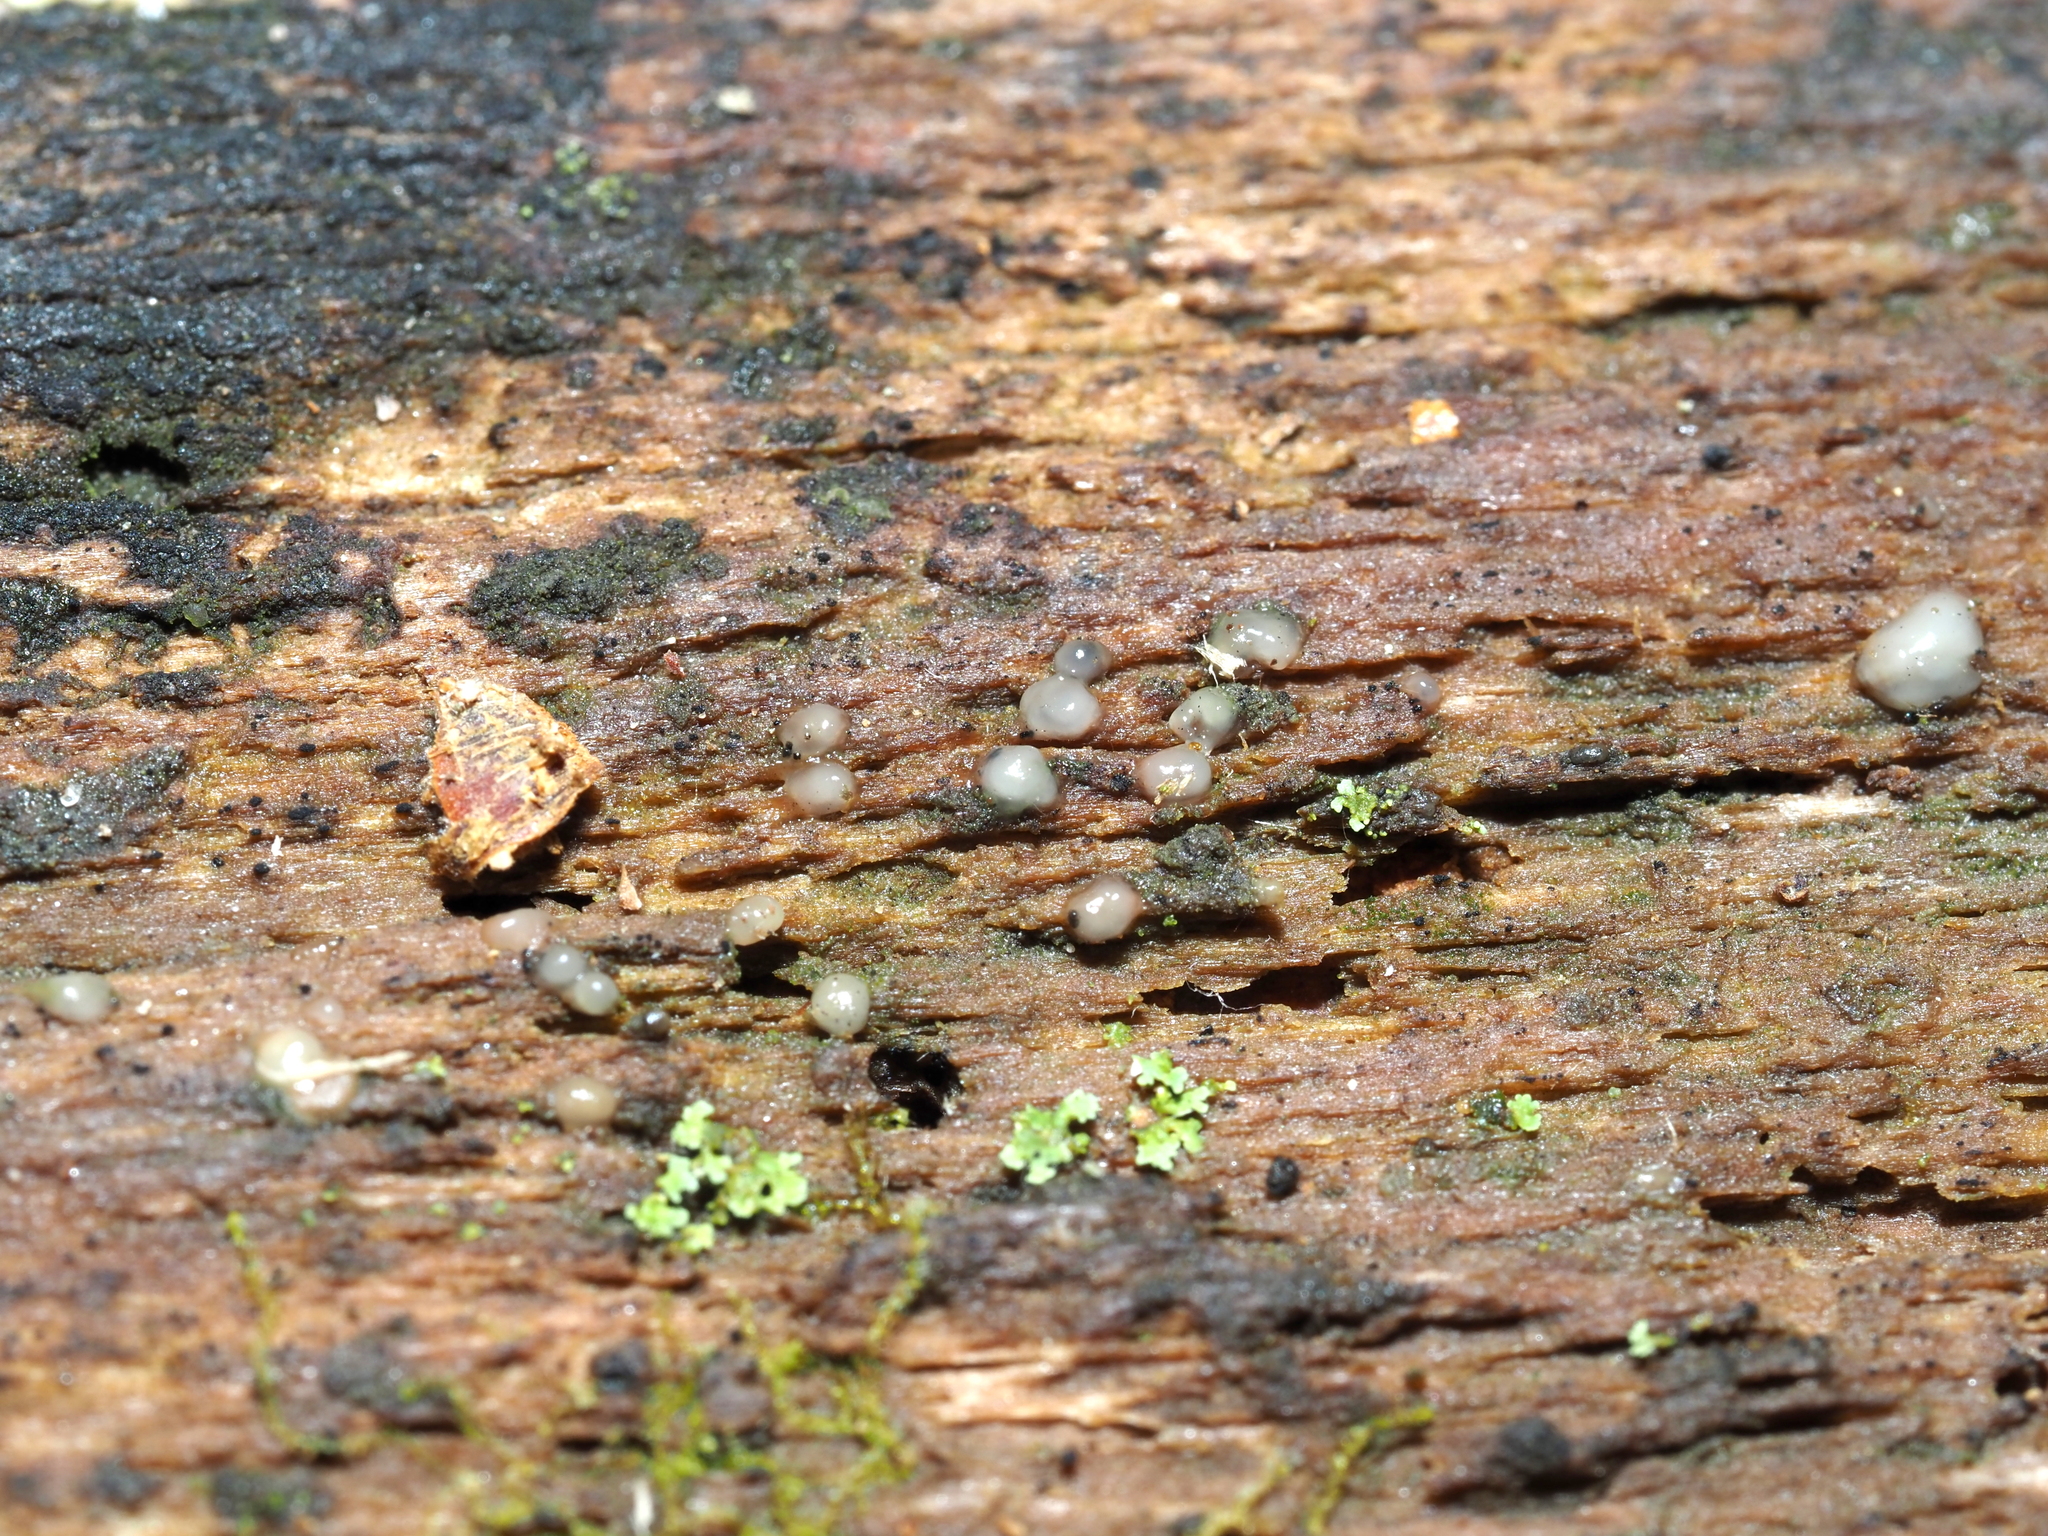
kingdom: Fungi
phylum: Basidiomycota
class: Atractiellomycetes
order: Atractiellales
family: Phleogenaceae
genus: Helicogloea
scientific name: Helicogloea compressa
